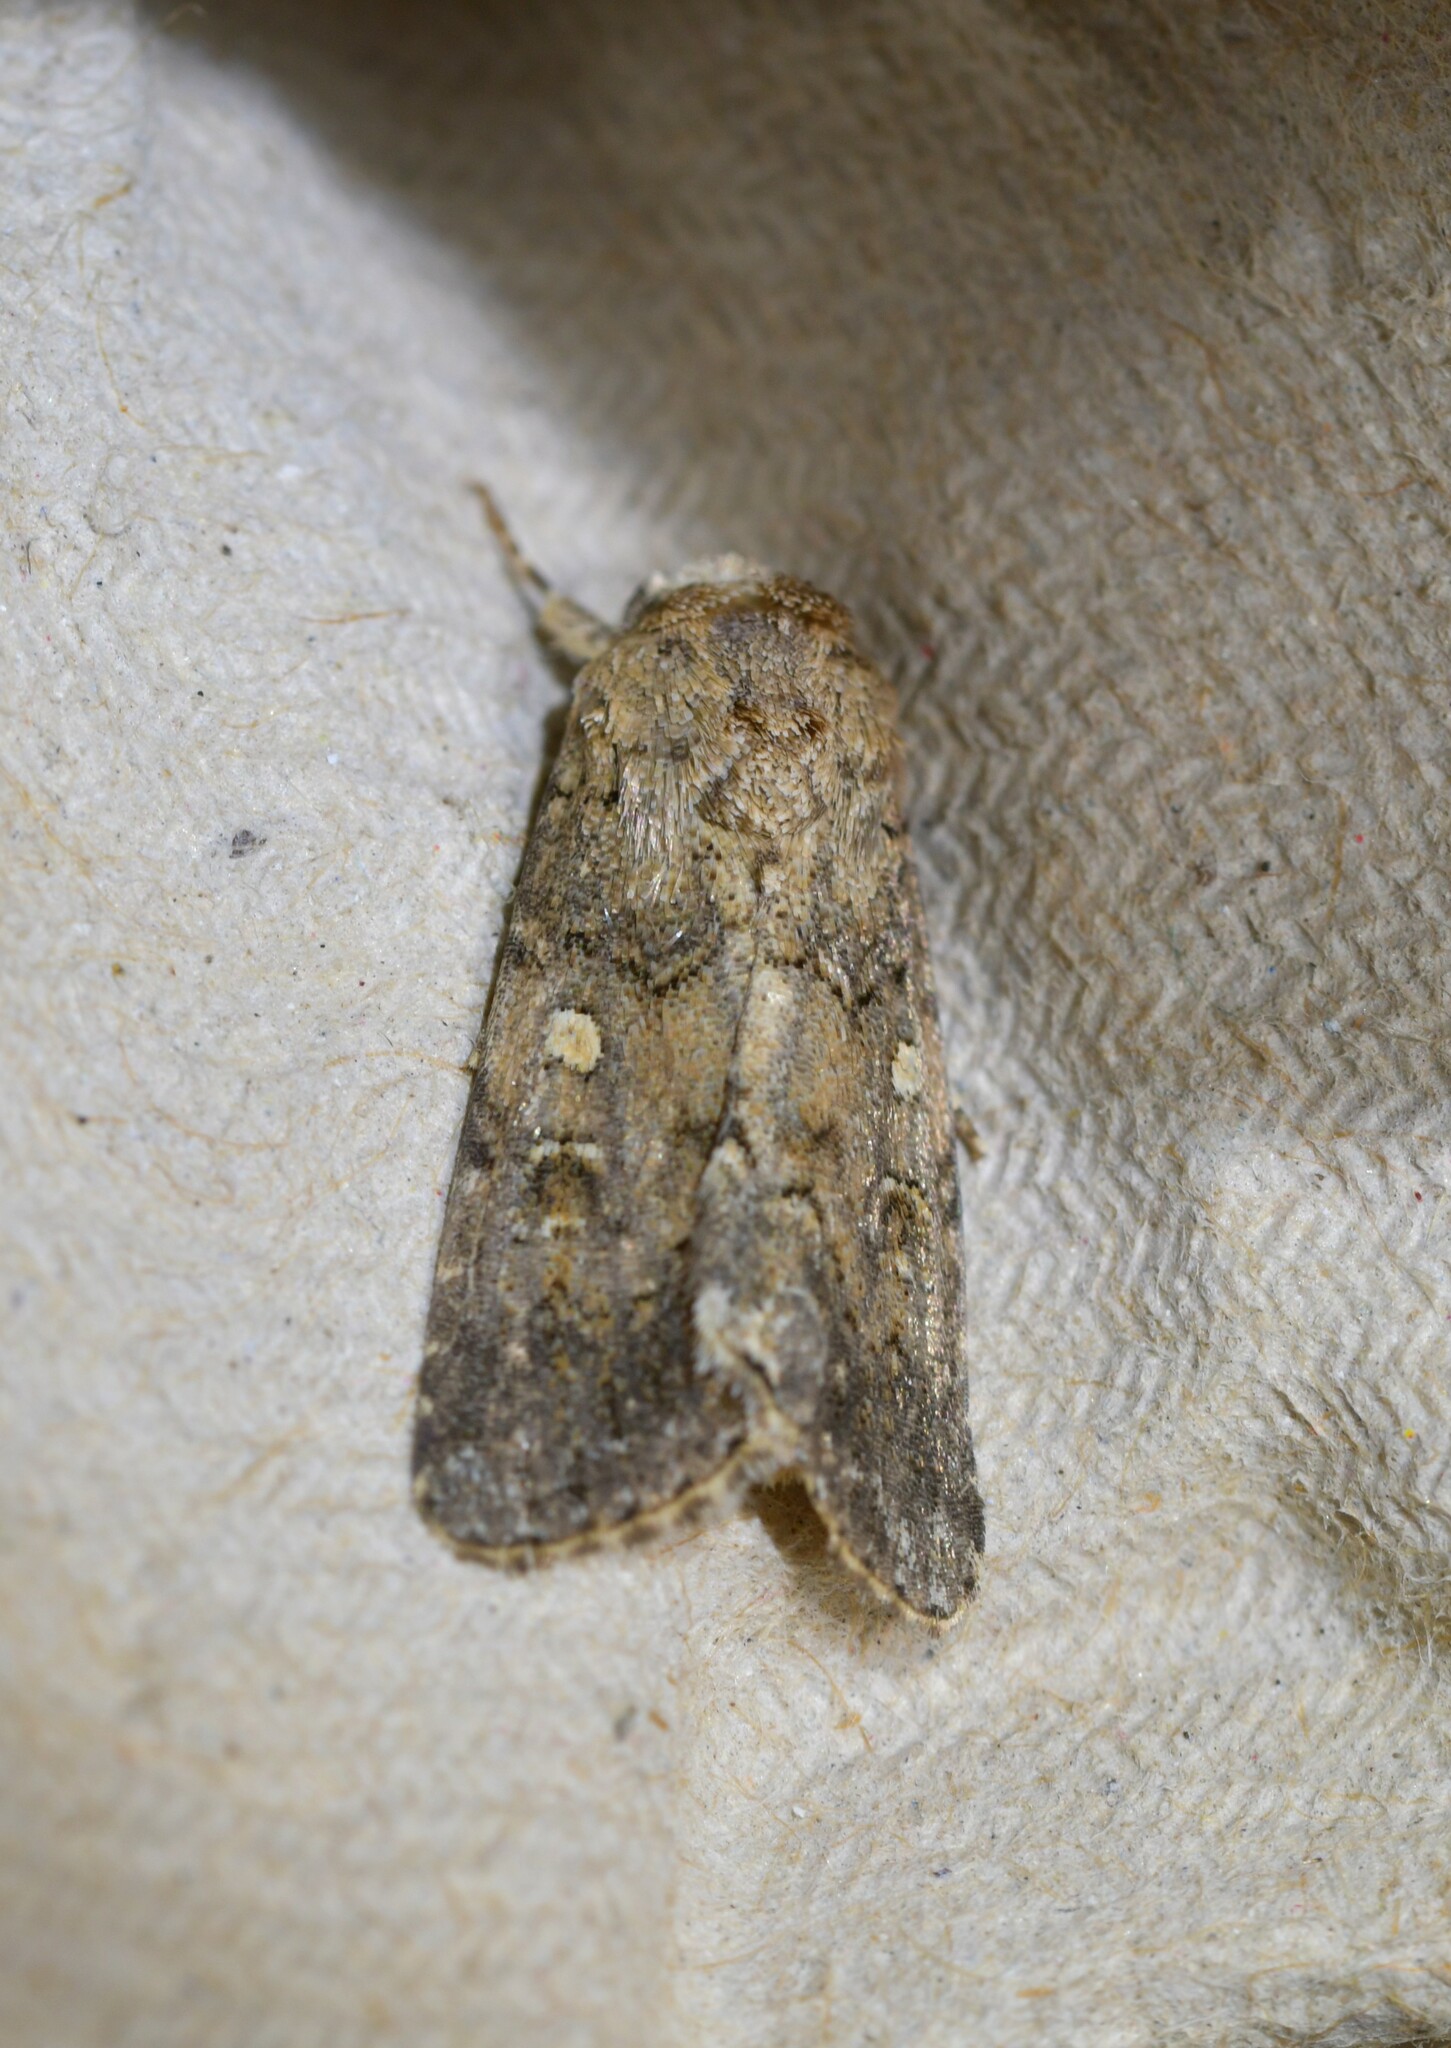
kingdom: Animalia
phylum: Arthropoda
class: Insecta
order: Lepidoptera
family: Noctuidae
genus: Spodoptera
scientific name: Spodoptera cilium
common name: Dark mottled willow
